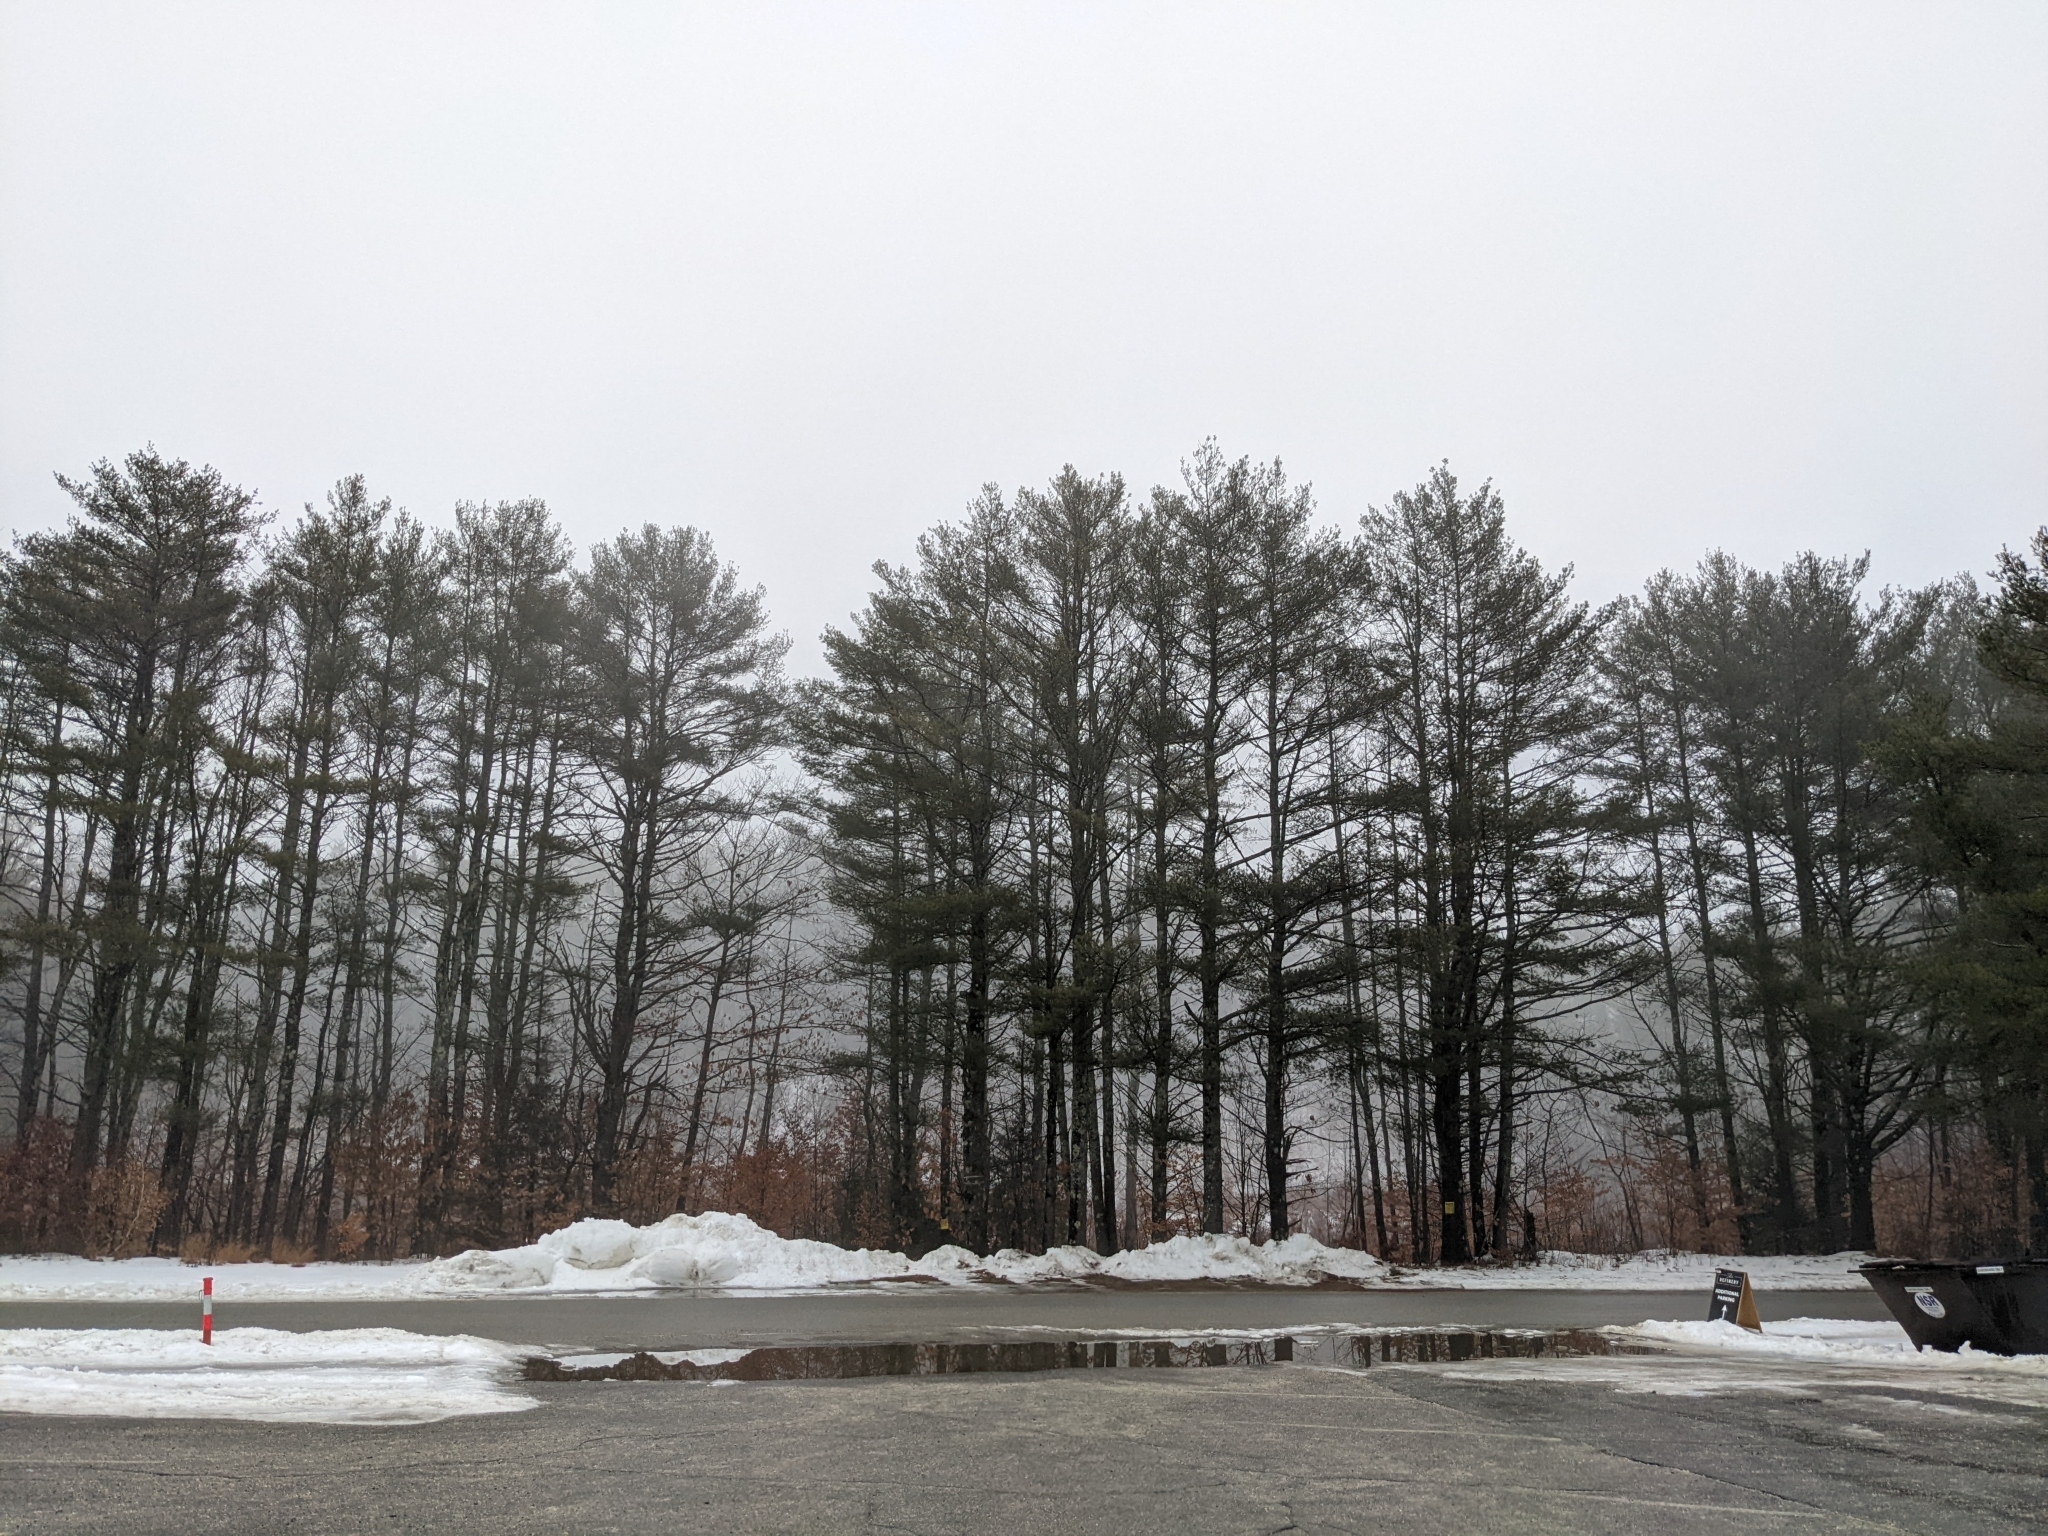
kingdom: Plantae
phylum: Tracheophyta
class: Pinopsida
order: Pinales
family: Pinaceae
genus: Pinus
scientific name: Pinus strobus
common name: Weymouth pine
